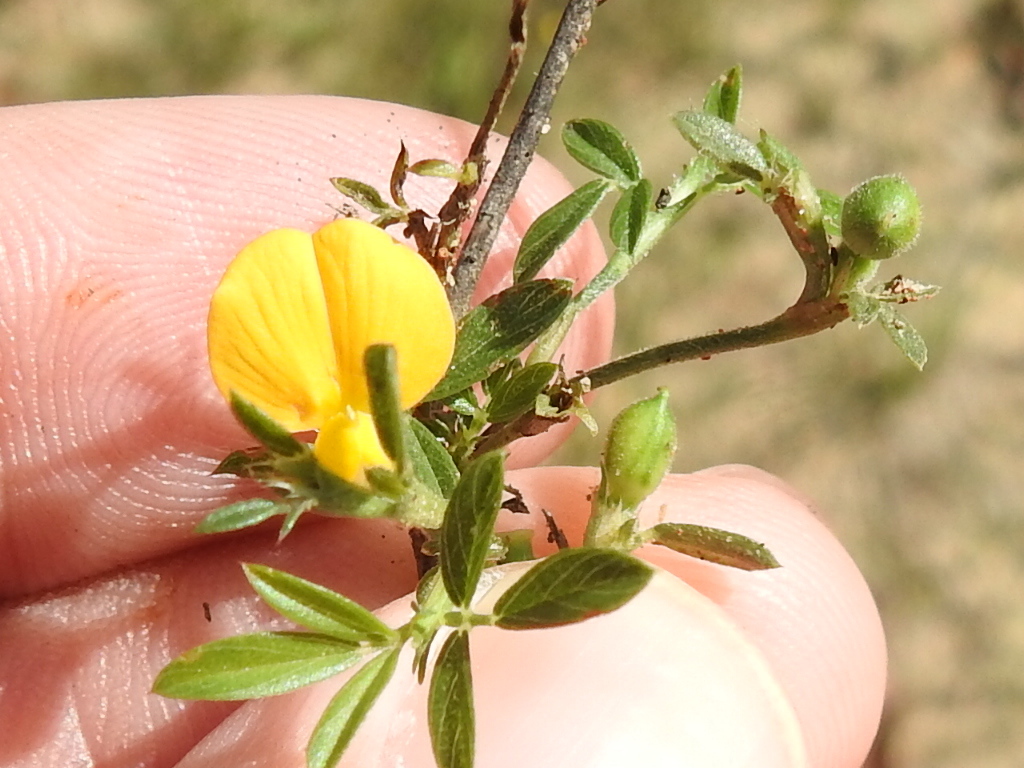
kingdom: Plantae
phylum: Tracheophyta
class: Magnoliopsida
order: Fabales
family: Fabaceae
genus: Stylosanthes
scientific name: Stylosanthes biflora
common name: Two-flower pencil-flower
